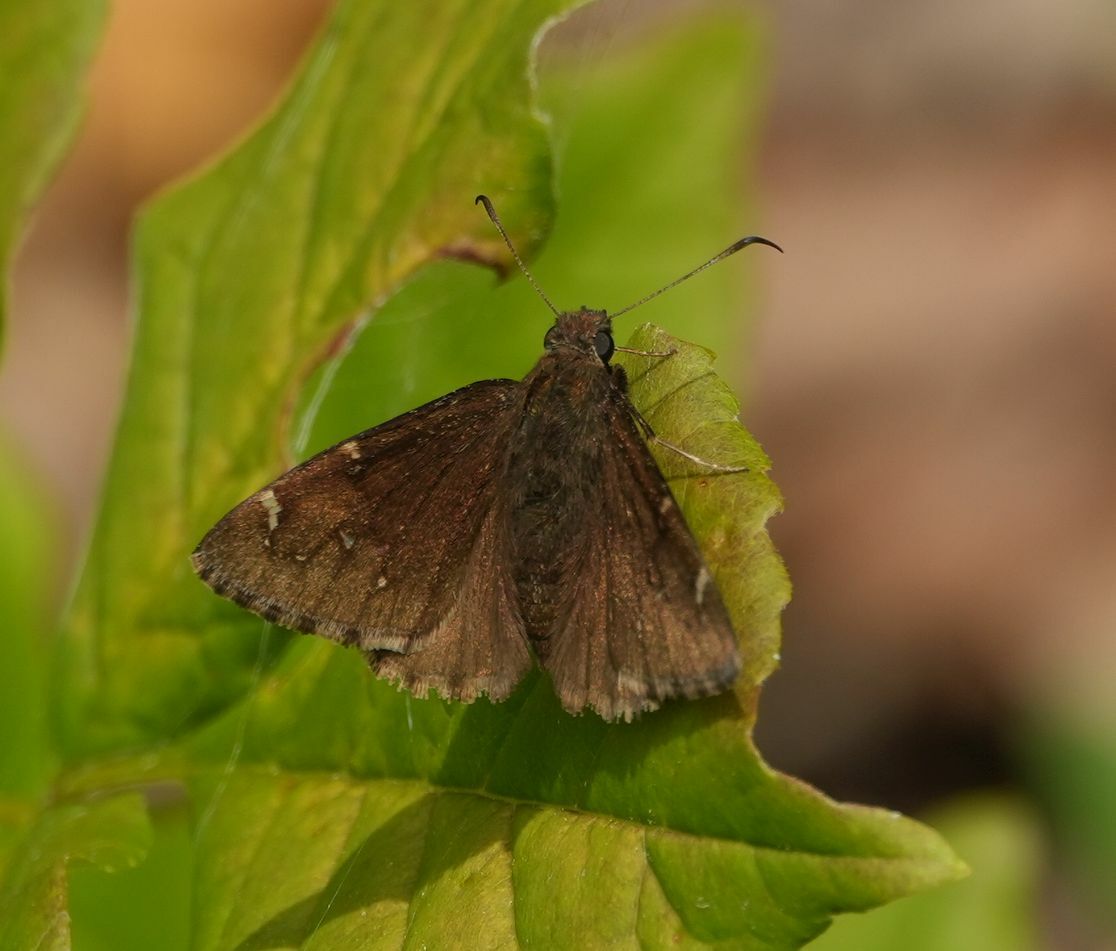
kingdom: Animalia
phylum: Arthropoda
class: Insecta
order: Lepidoptera
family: Hesperiidae
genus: Thorybes
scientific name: Thorybes pylades
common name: Northern cloudywing
